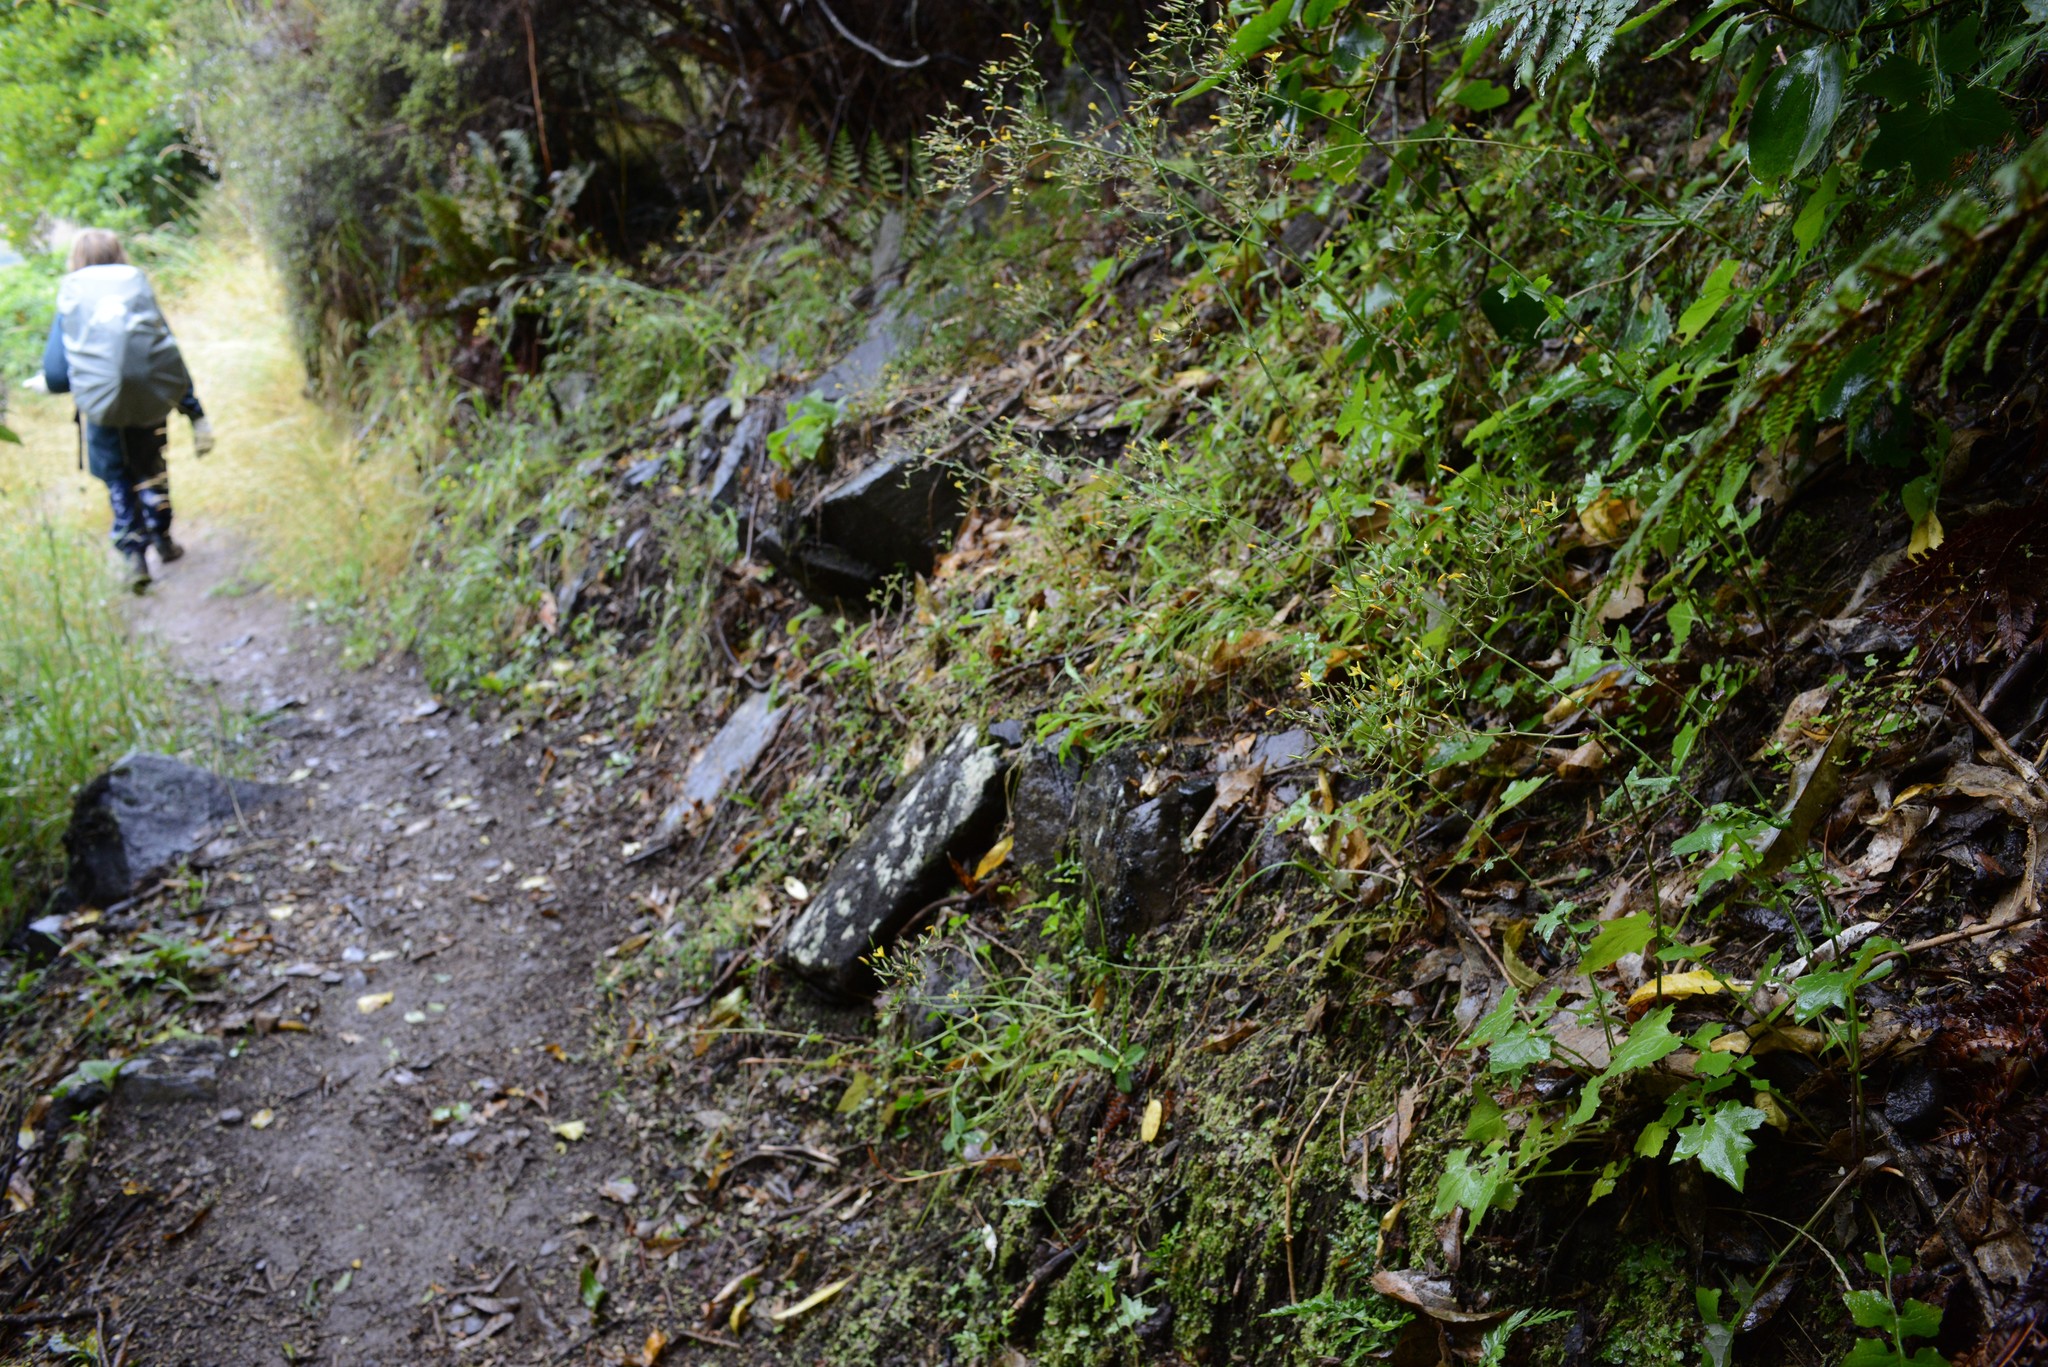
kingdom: Plantae
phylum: Tracheophyta
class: Magnoliopsida
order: Asterales
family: Asteraceae
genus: Mycelis
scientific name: Mycelis muralis
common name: Wall lettuce
